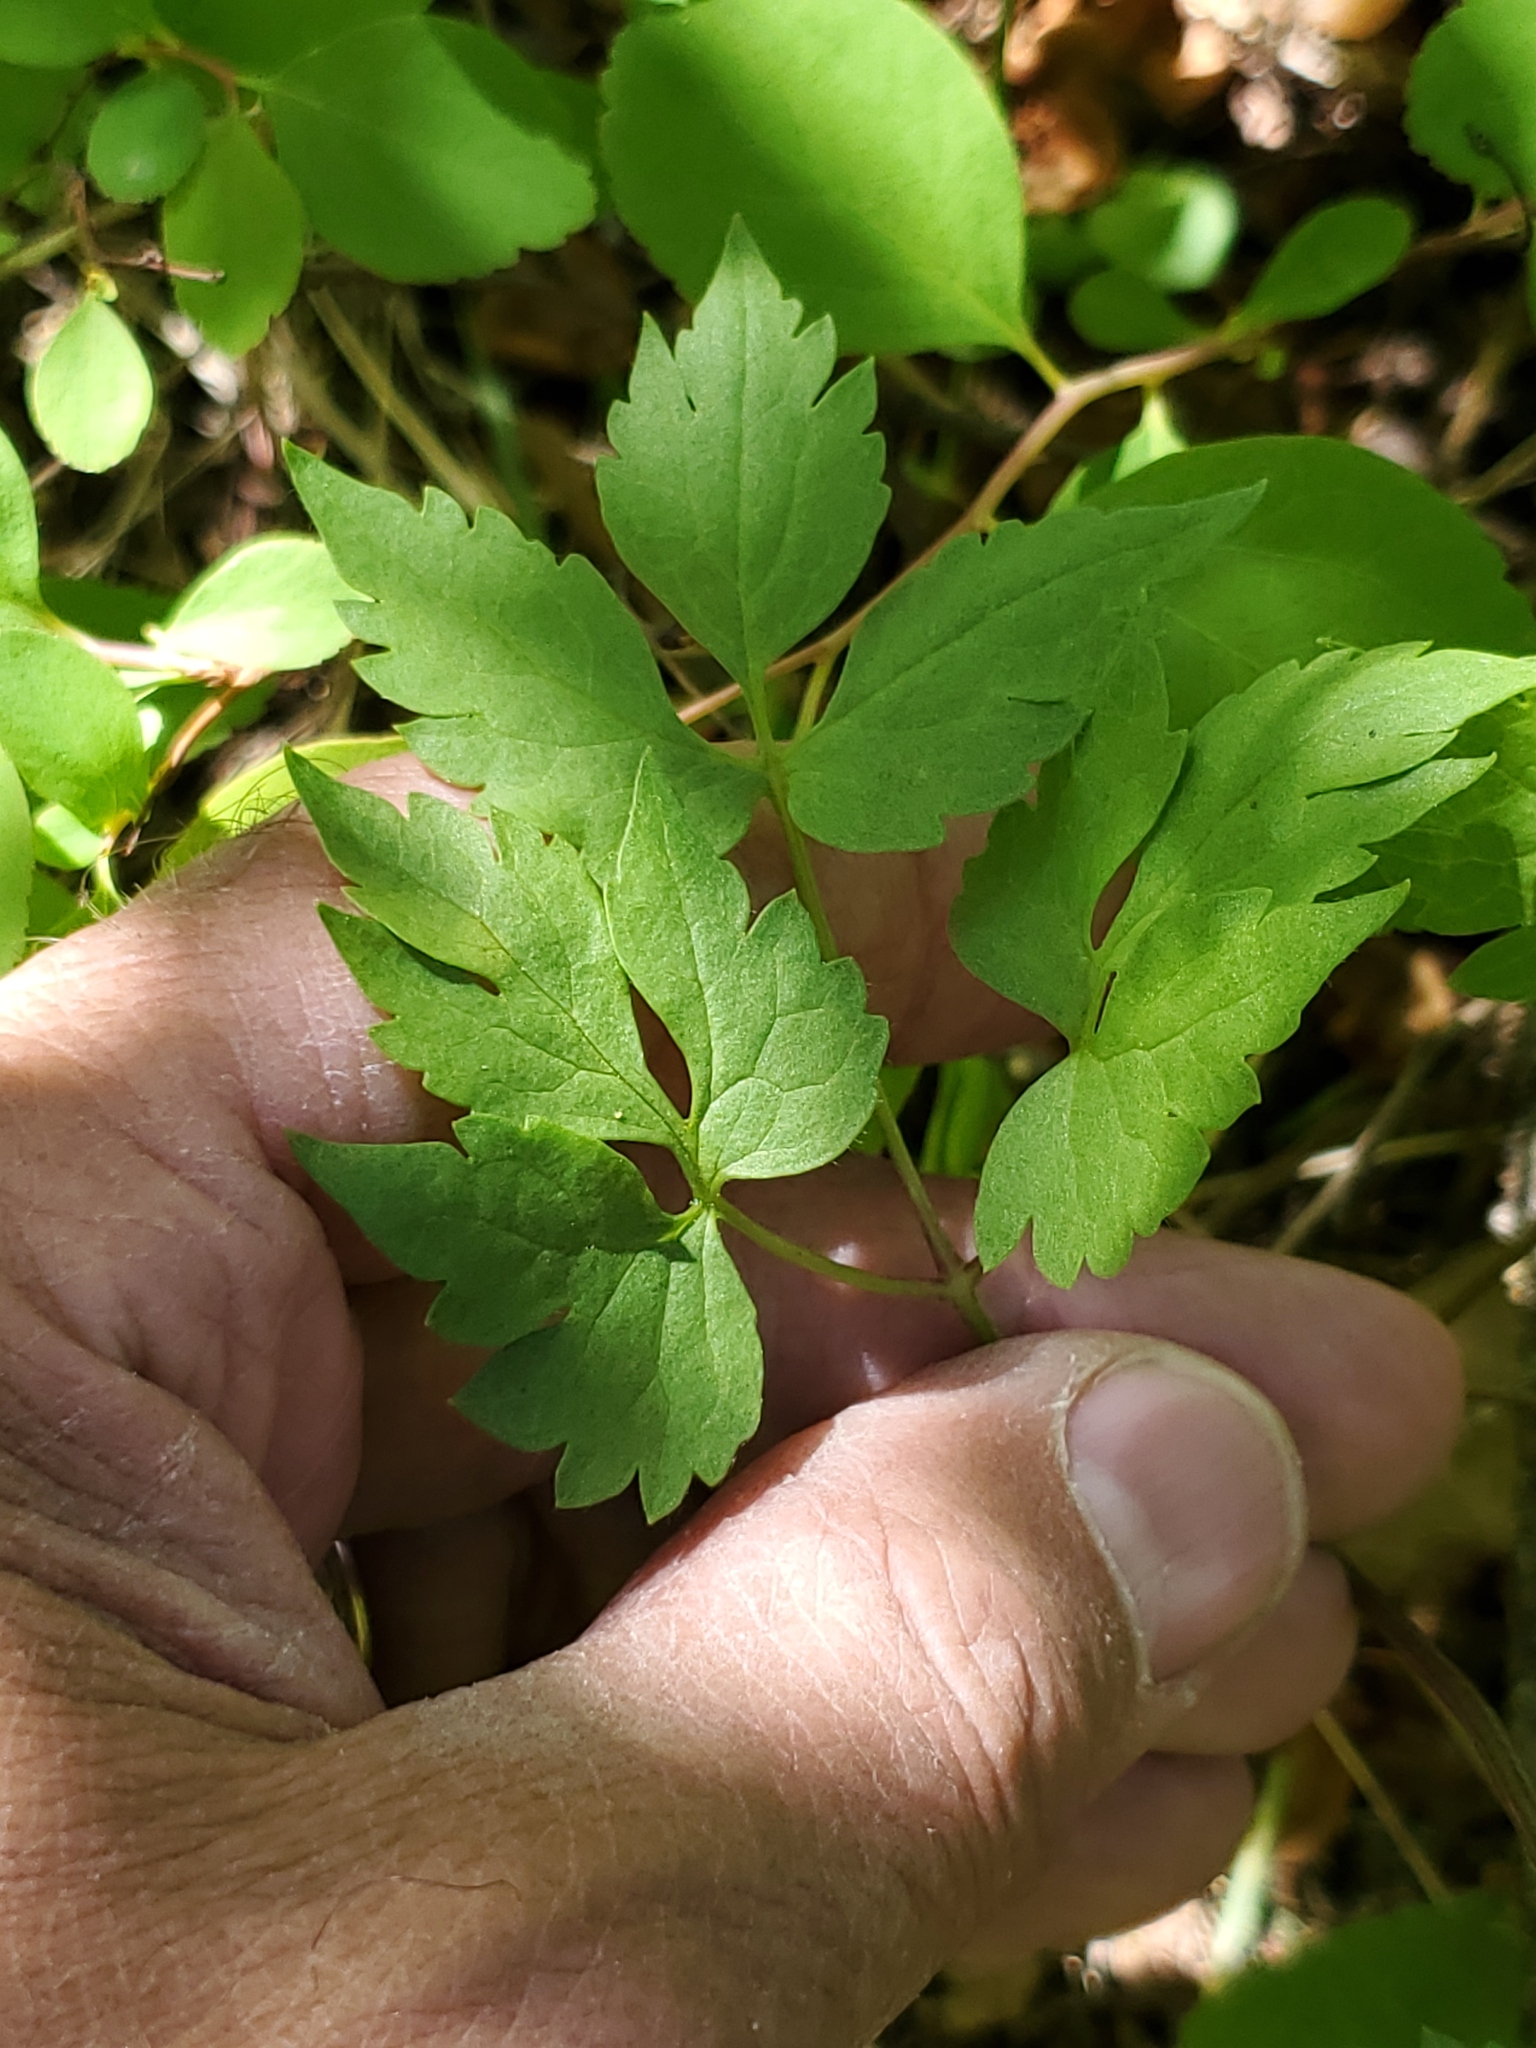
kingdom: Plantae
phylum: Tracheophyta
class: Magnoliopsida
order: Ranunculales
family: Ranunculaceae
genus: Clematis
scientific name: Clematis occidentalis
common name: Purple clematis
